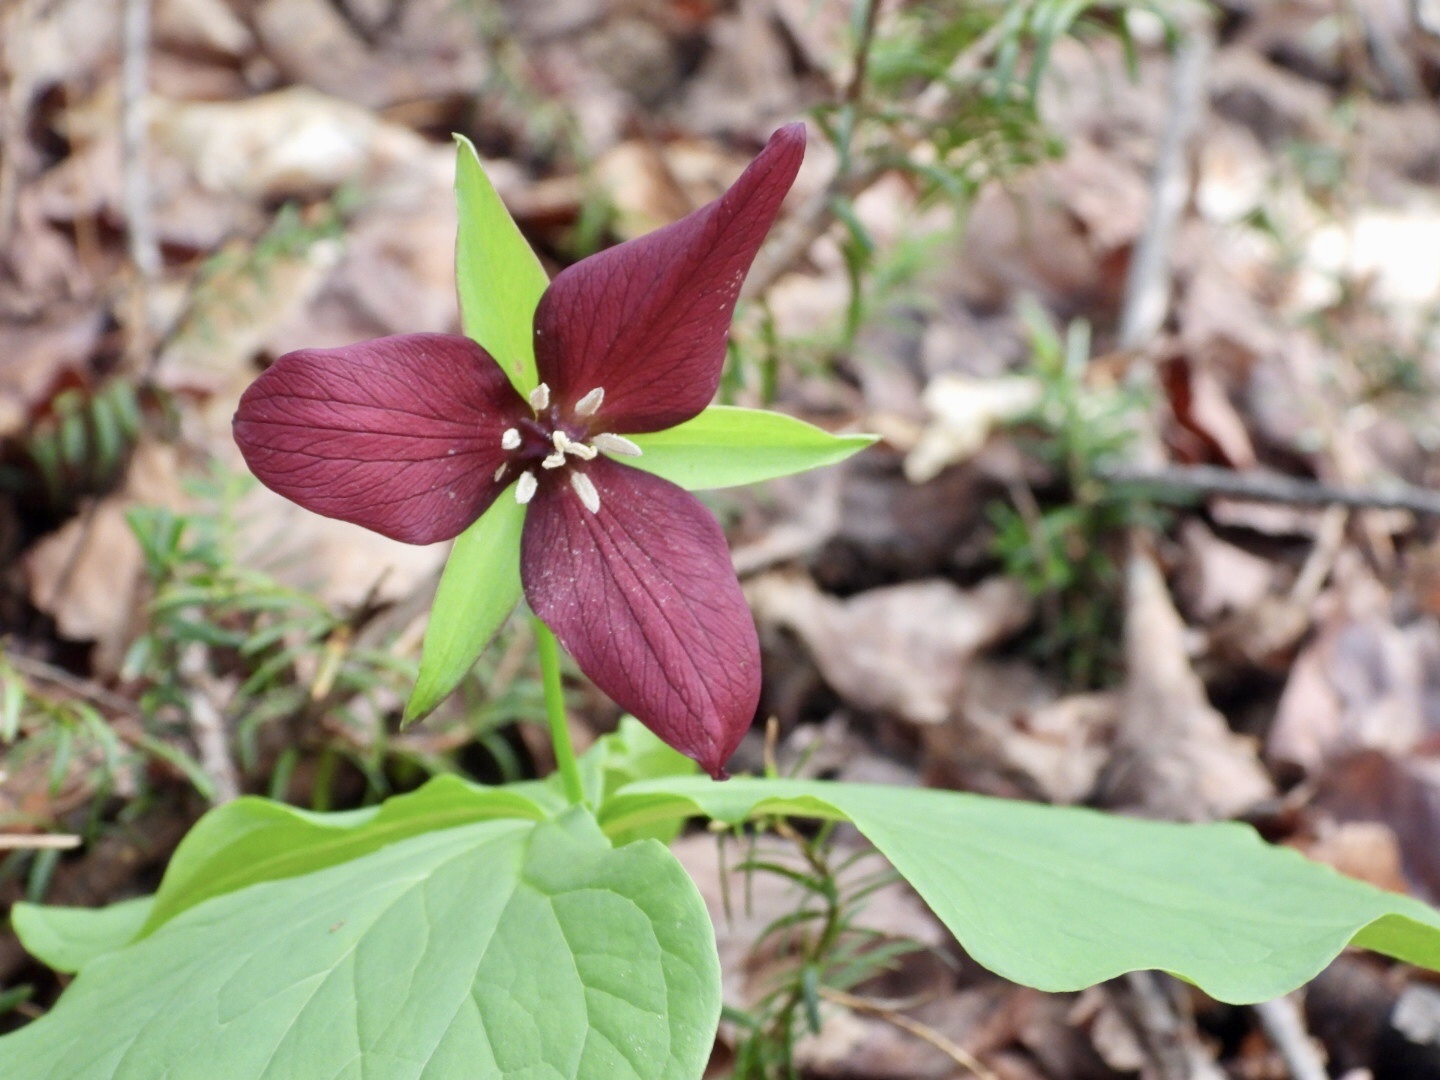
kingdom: Plantae
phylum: Tracheophyta
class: Liliopsida
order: Liliales
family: Melanthiaceae
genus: Trillium
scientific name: Trillium erectum
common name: Purple trillium
